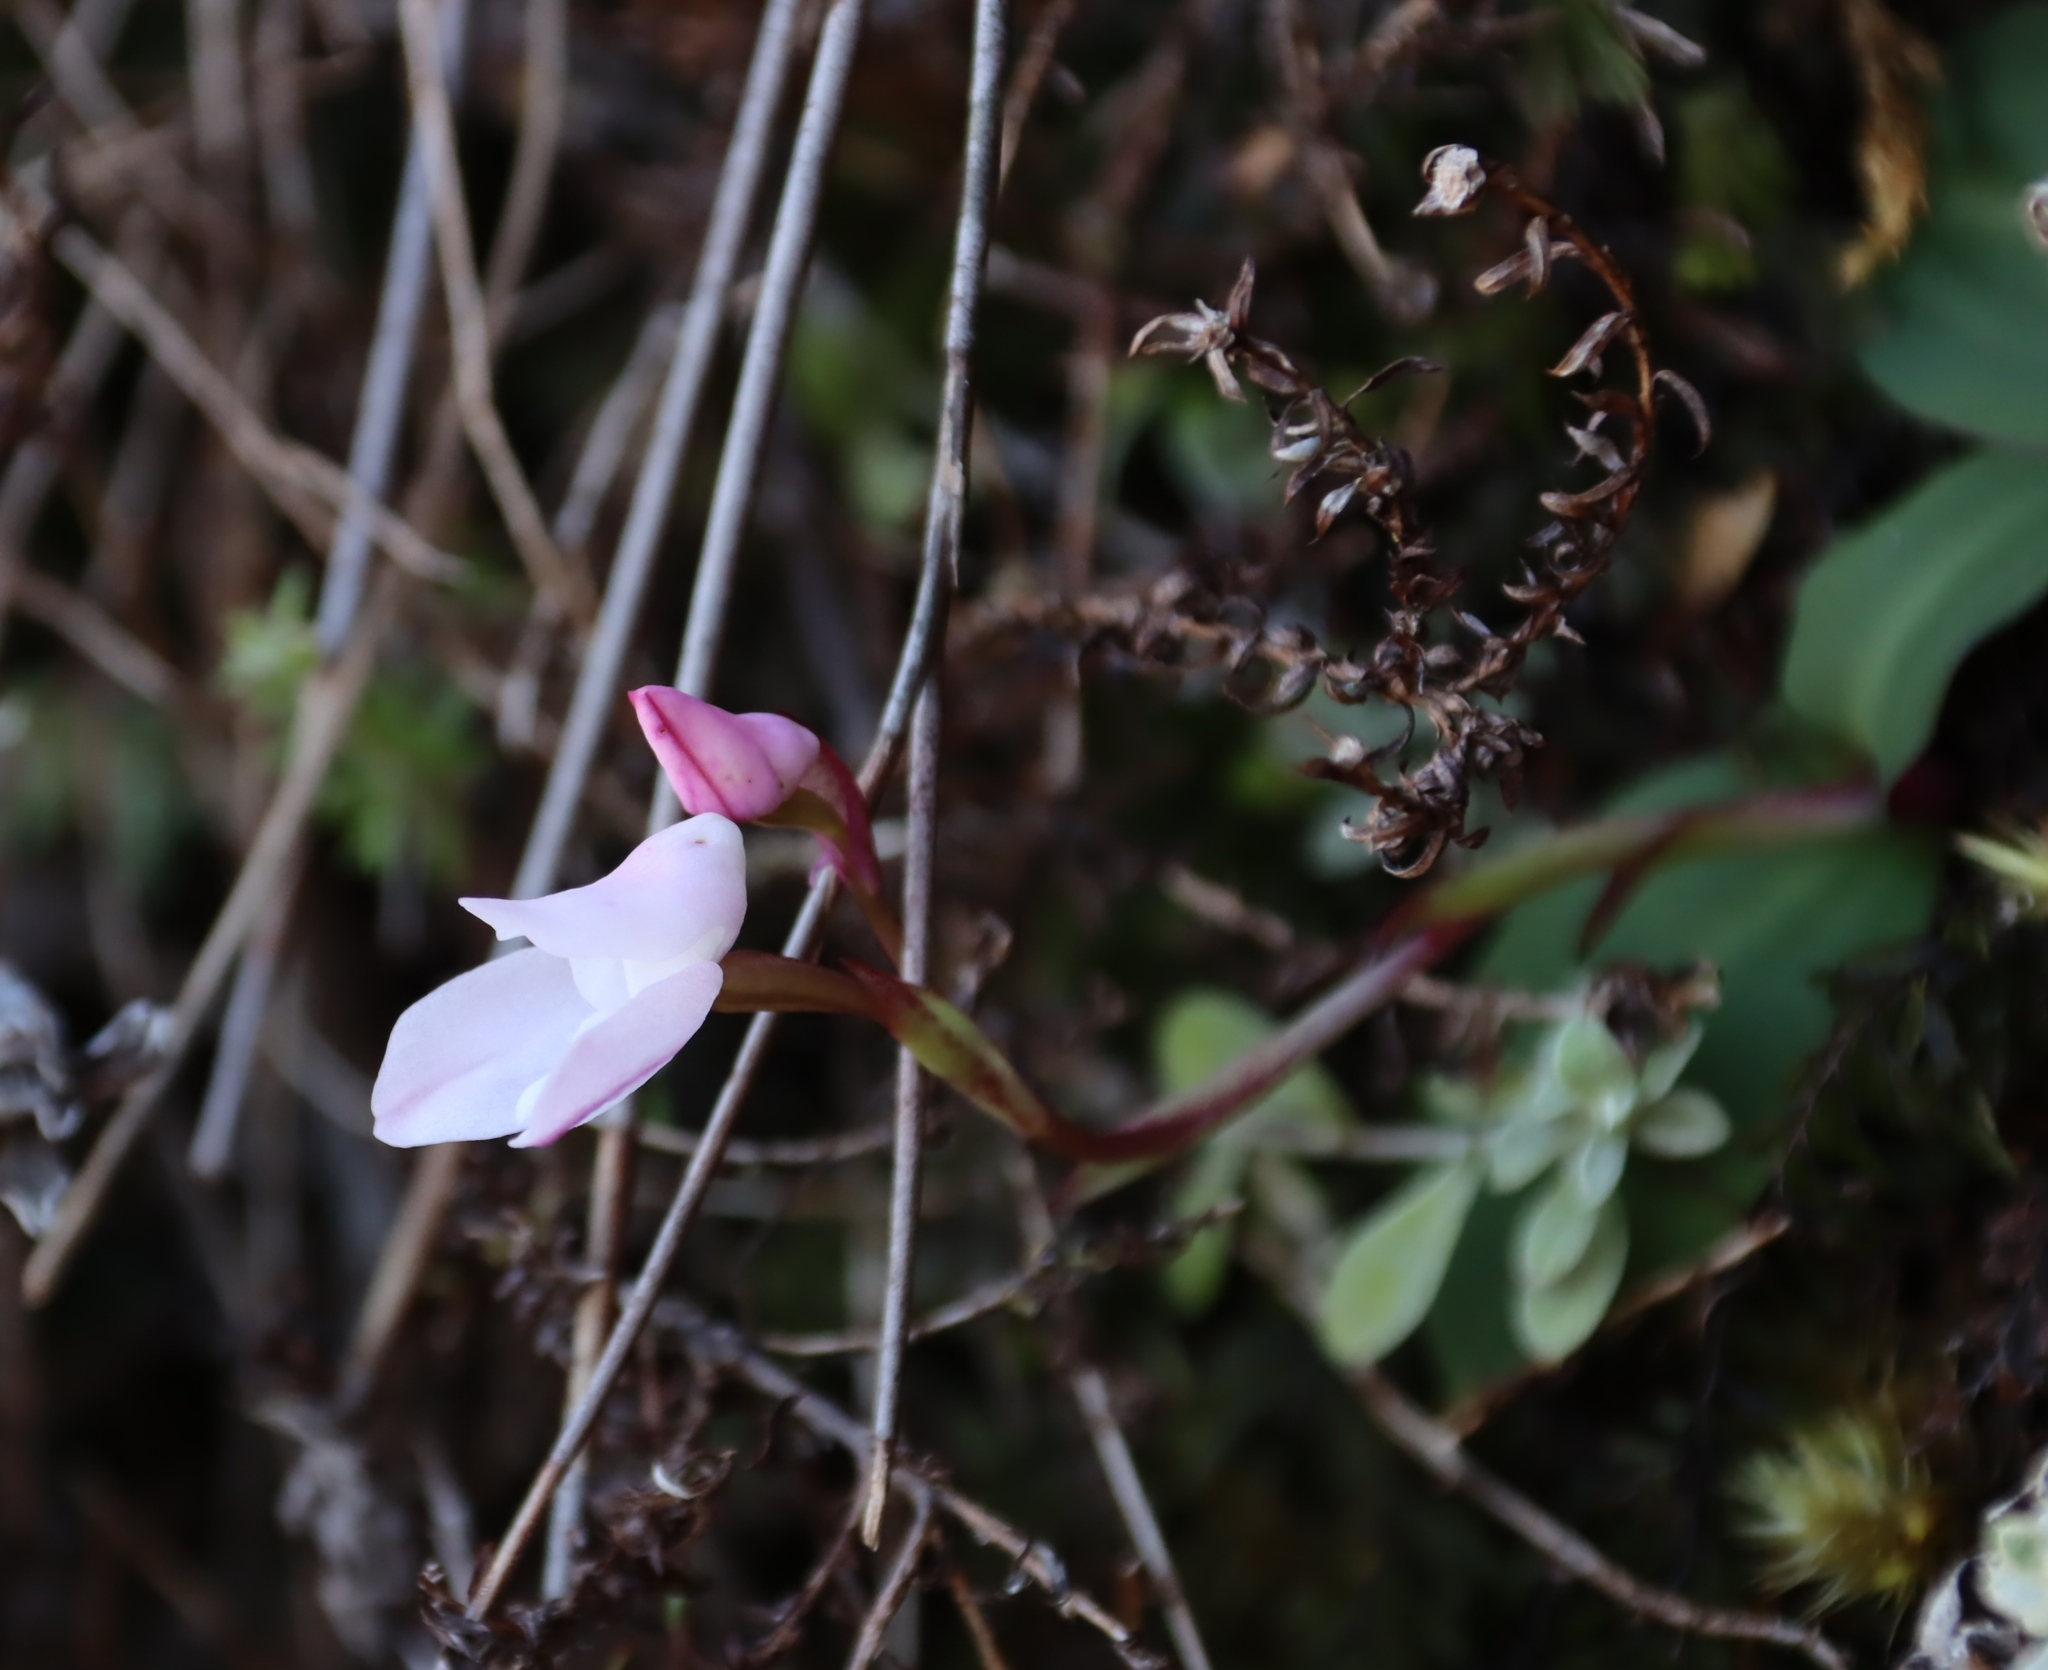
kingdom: Plantae
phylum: Tracheophyta
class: Liliopsida
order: Asparagales
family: Orchidaceae
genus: Disa
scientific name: Disa rosea
